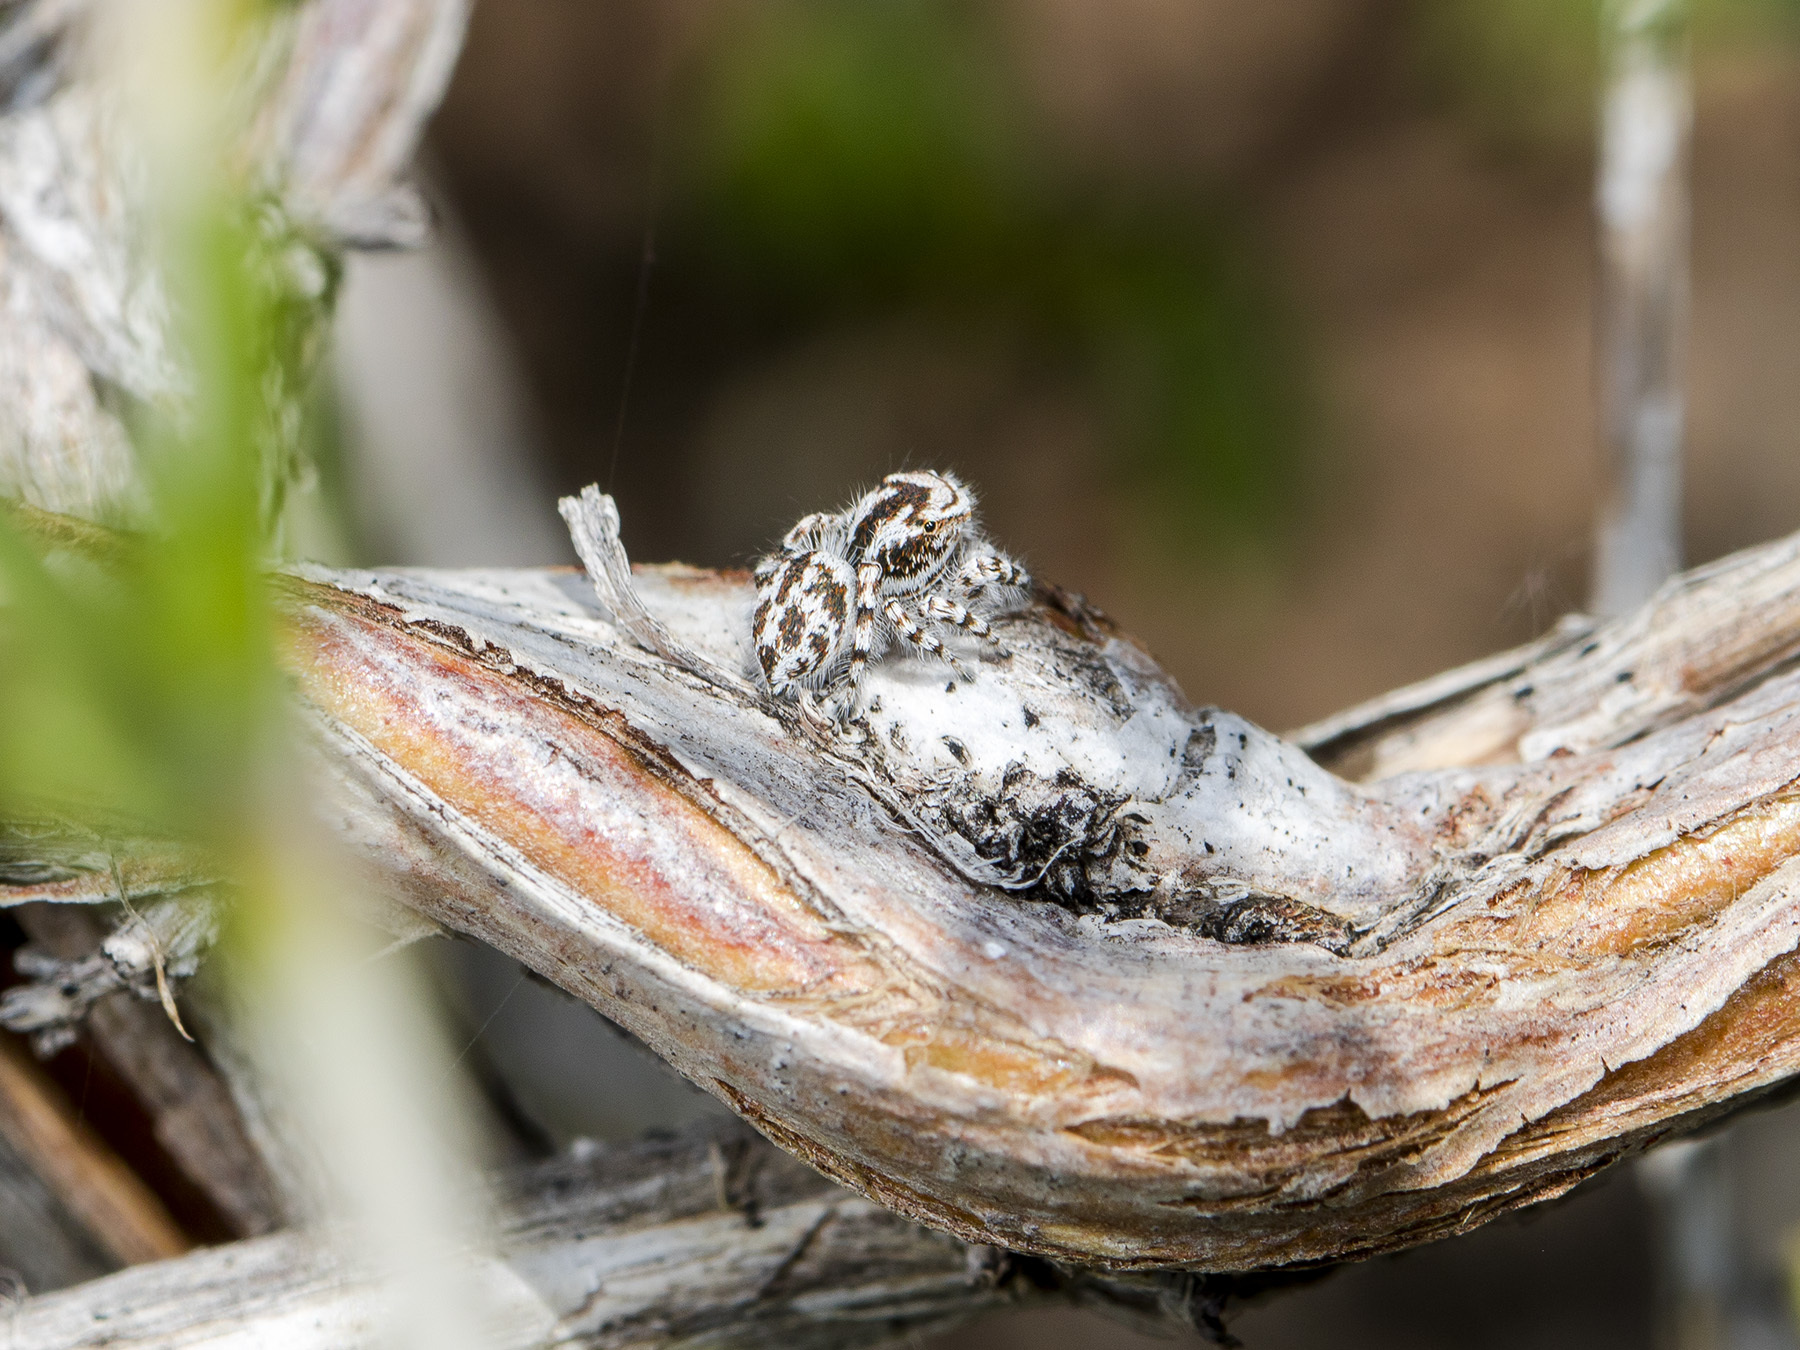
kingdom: Animalia
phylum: Arthropoda
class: Arachnida
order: Araneae
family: Salticidae
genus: Pseudomogrus
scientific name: Pseudomogrus dalaensis
